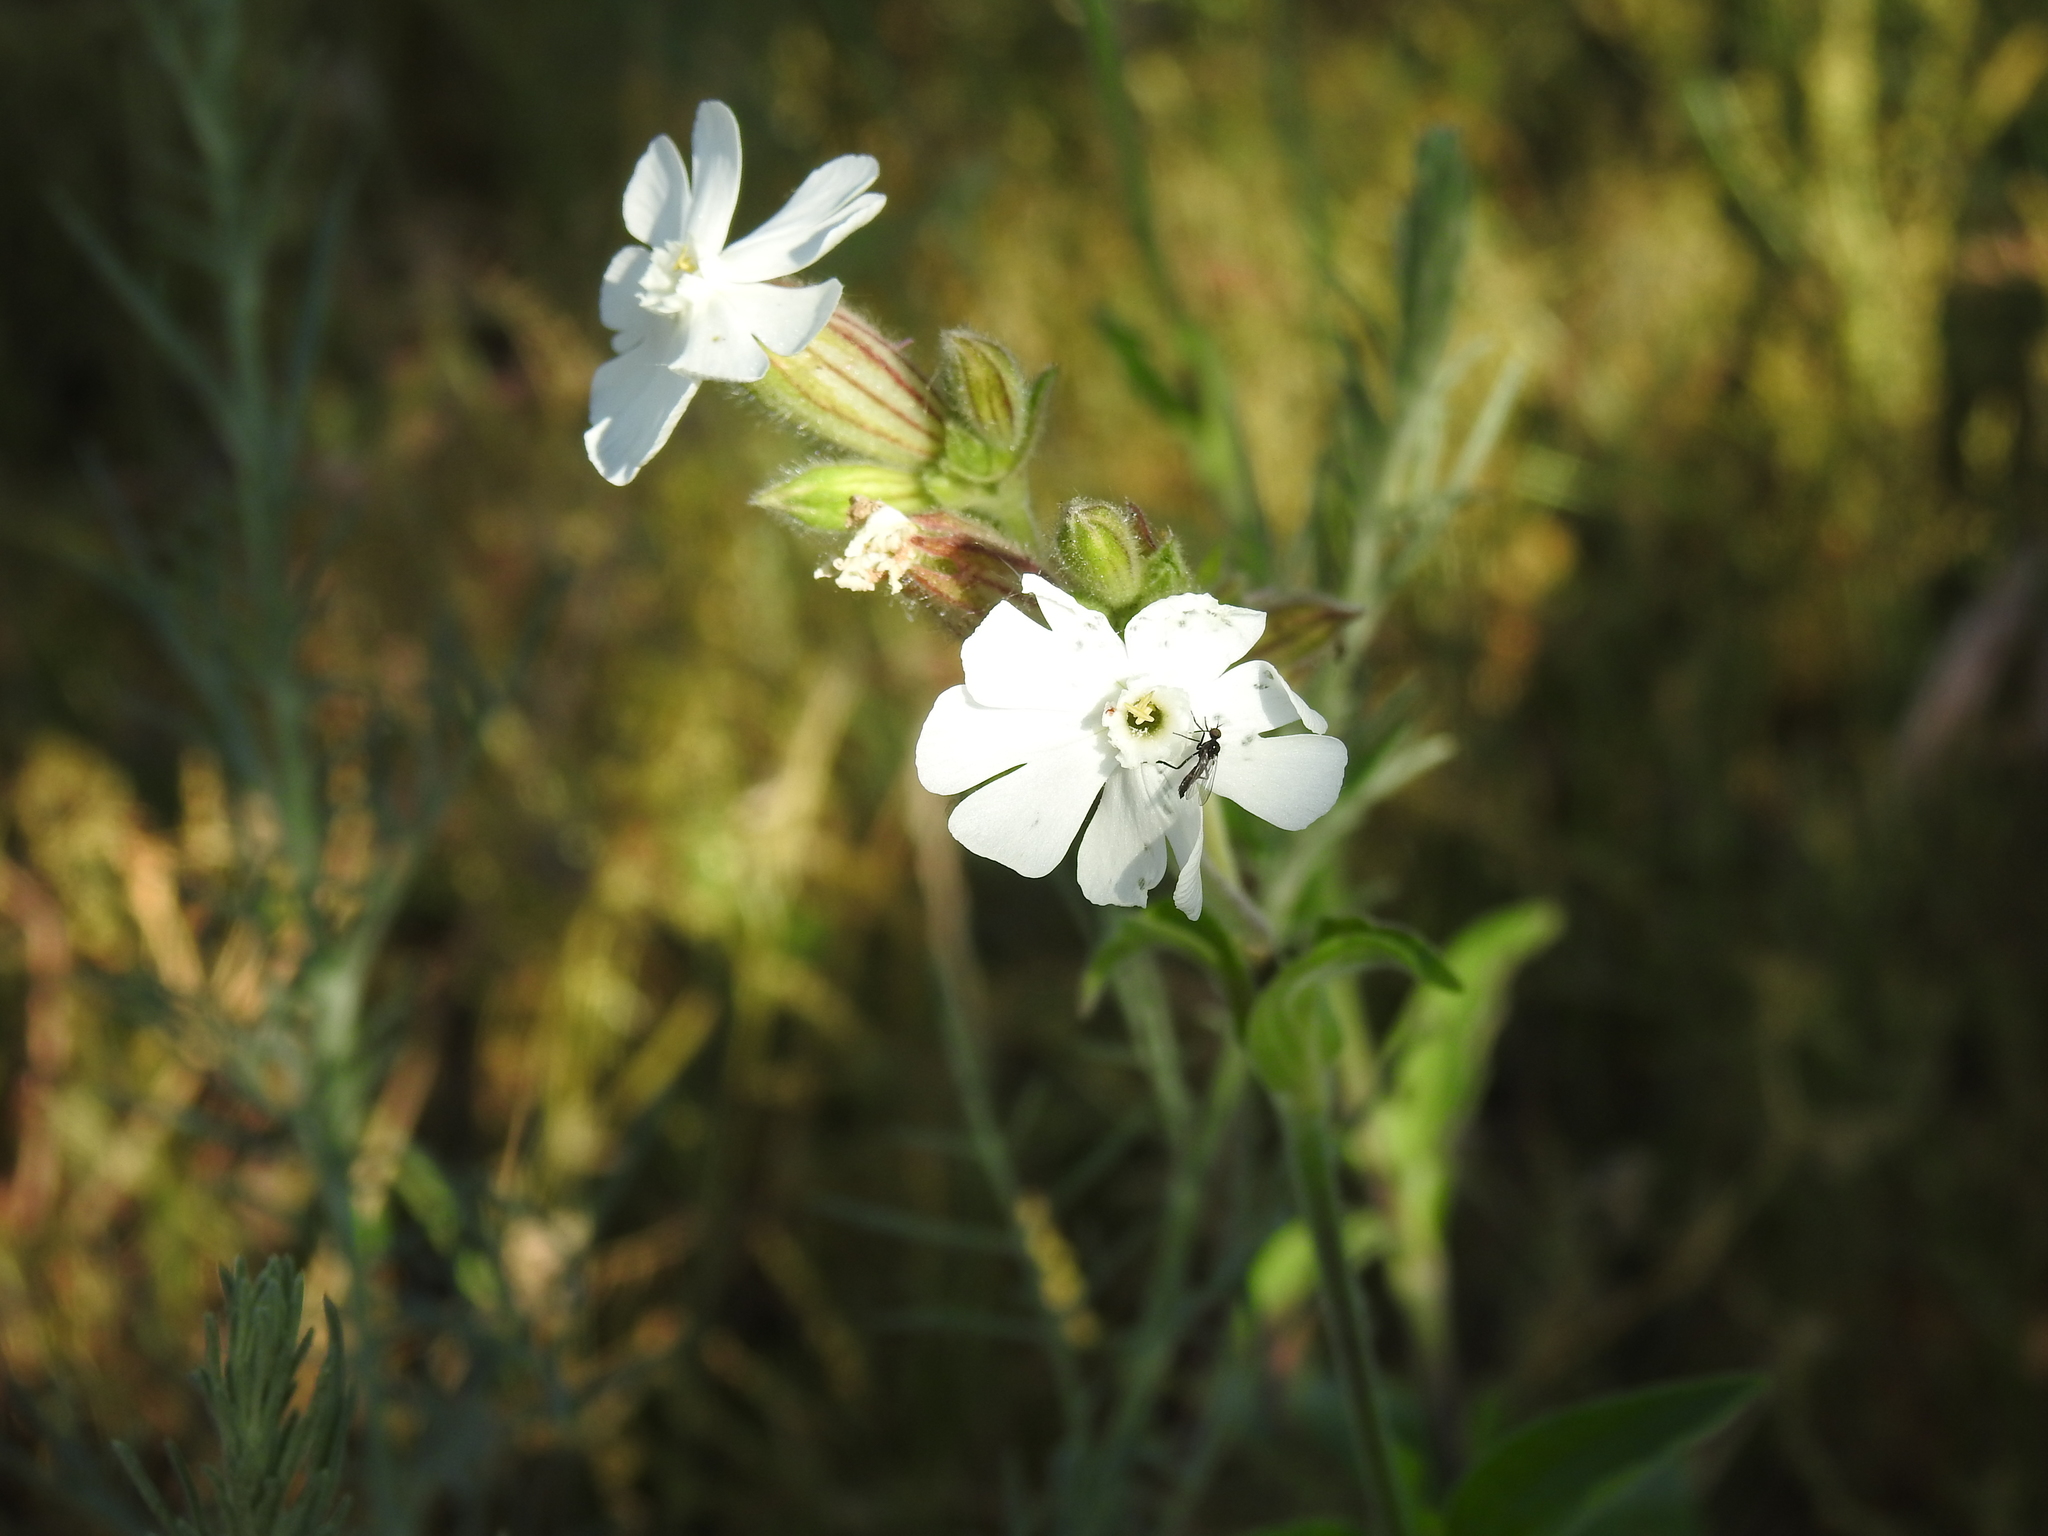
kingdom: Plantae
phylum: Tracheophyta
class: Magnoliopsida
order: Caryophyllales
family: Caryophyllaceae
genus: Silene
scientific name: Silene latifolia
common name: White campion
